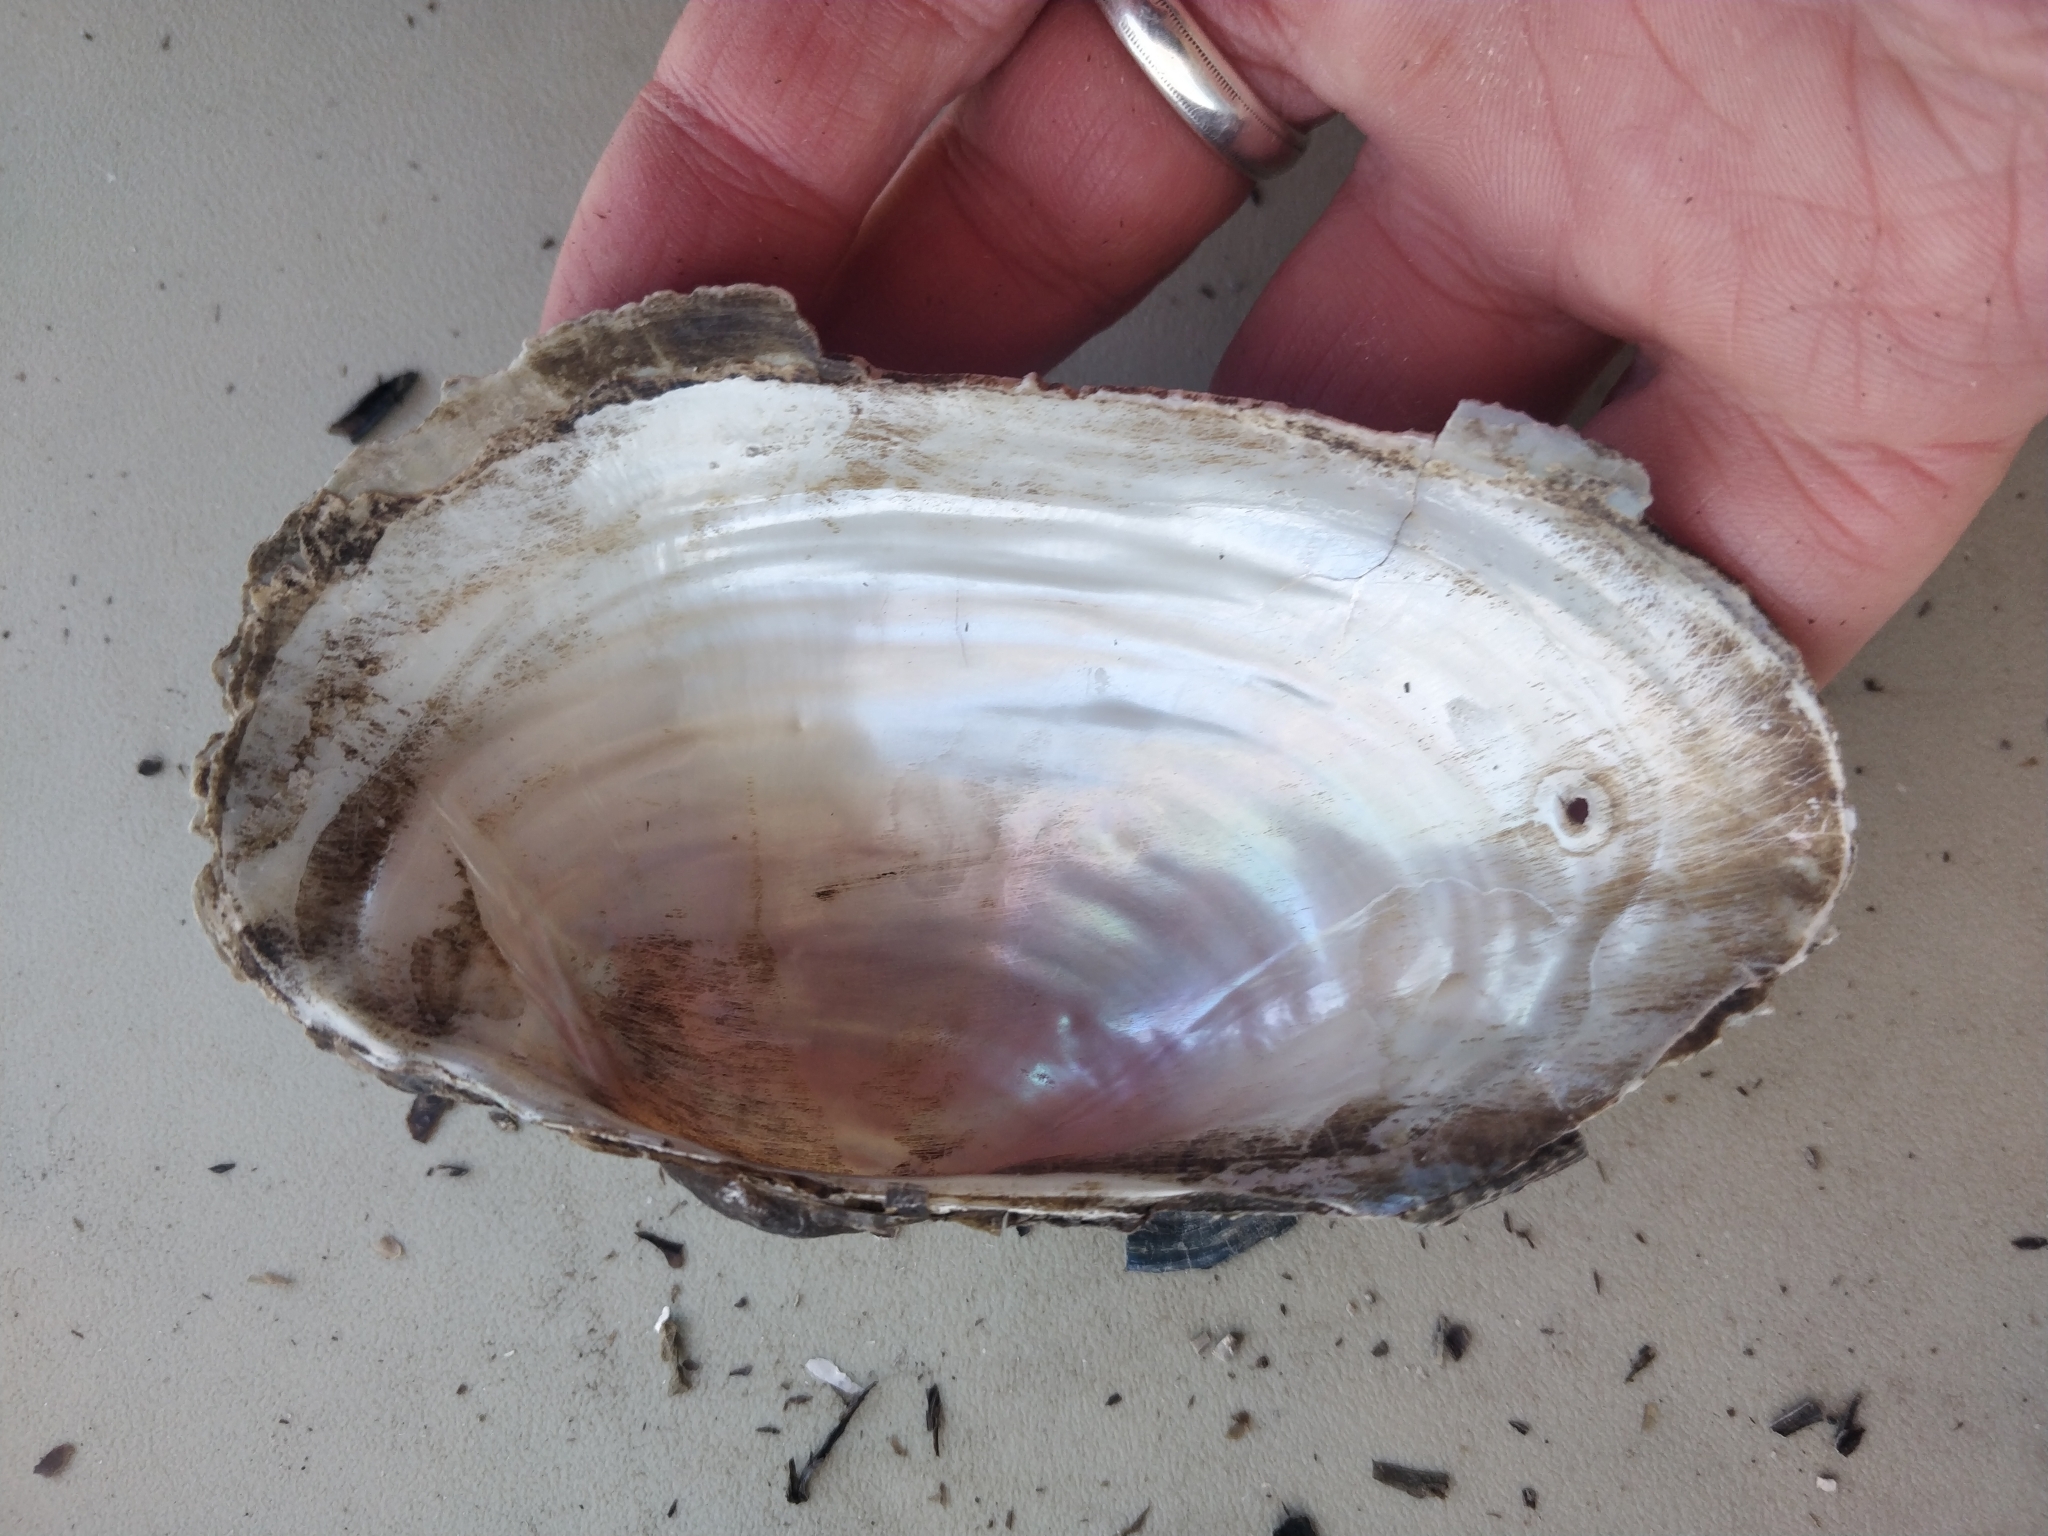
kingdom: Animalia
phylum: Mollusca
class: Bivalvia
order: Unionida
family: Unionidae
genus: Pyganodon
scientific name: Pyganodon grandis
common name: Giant floater
